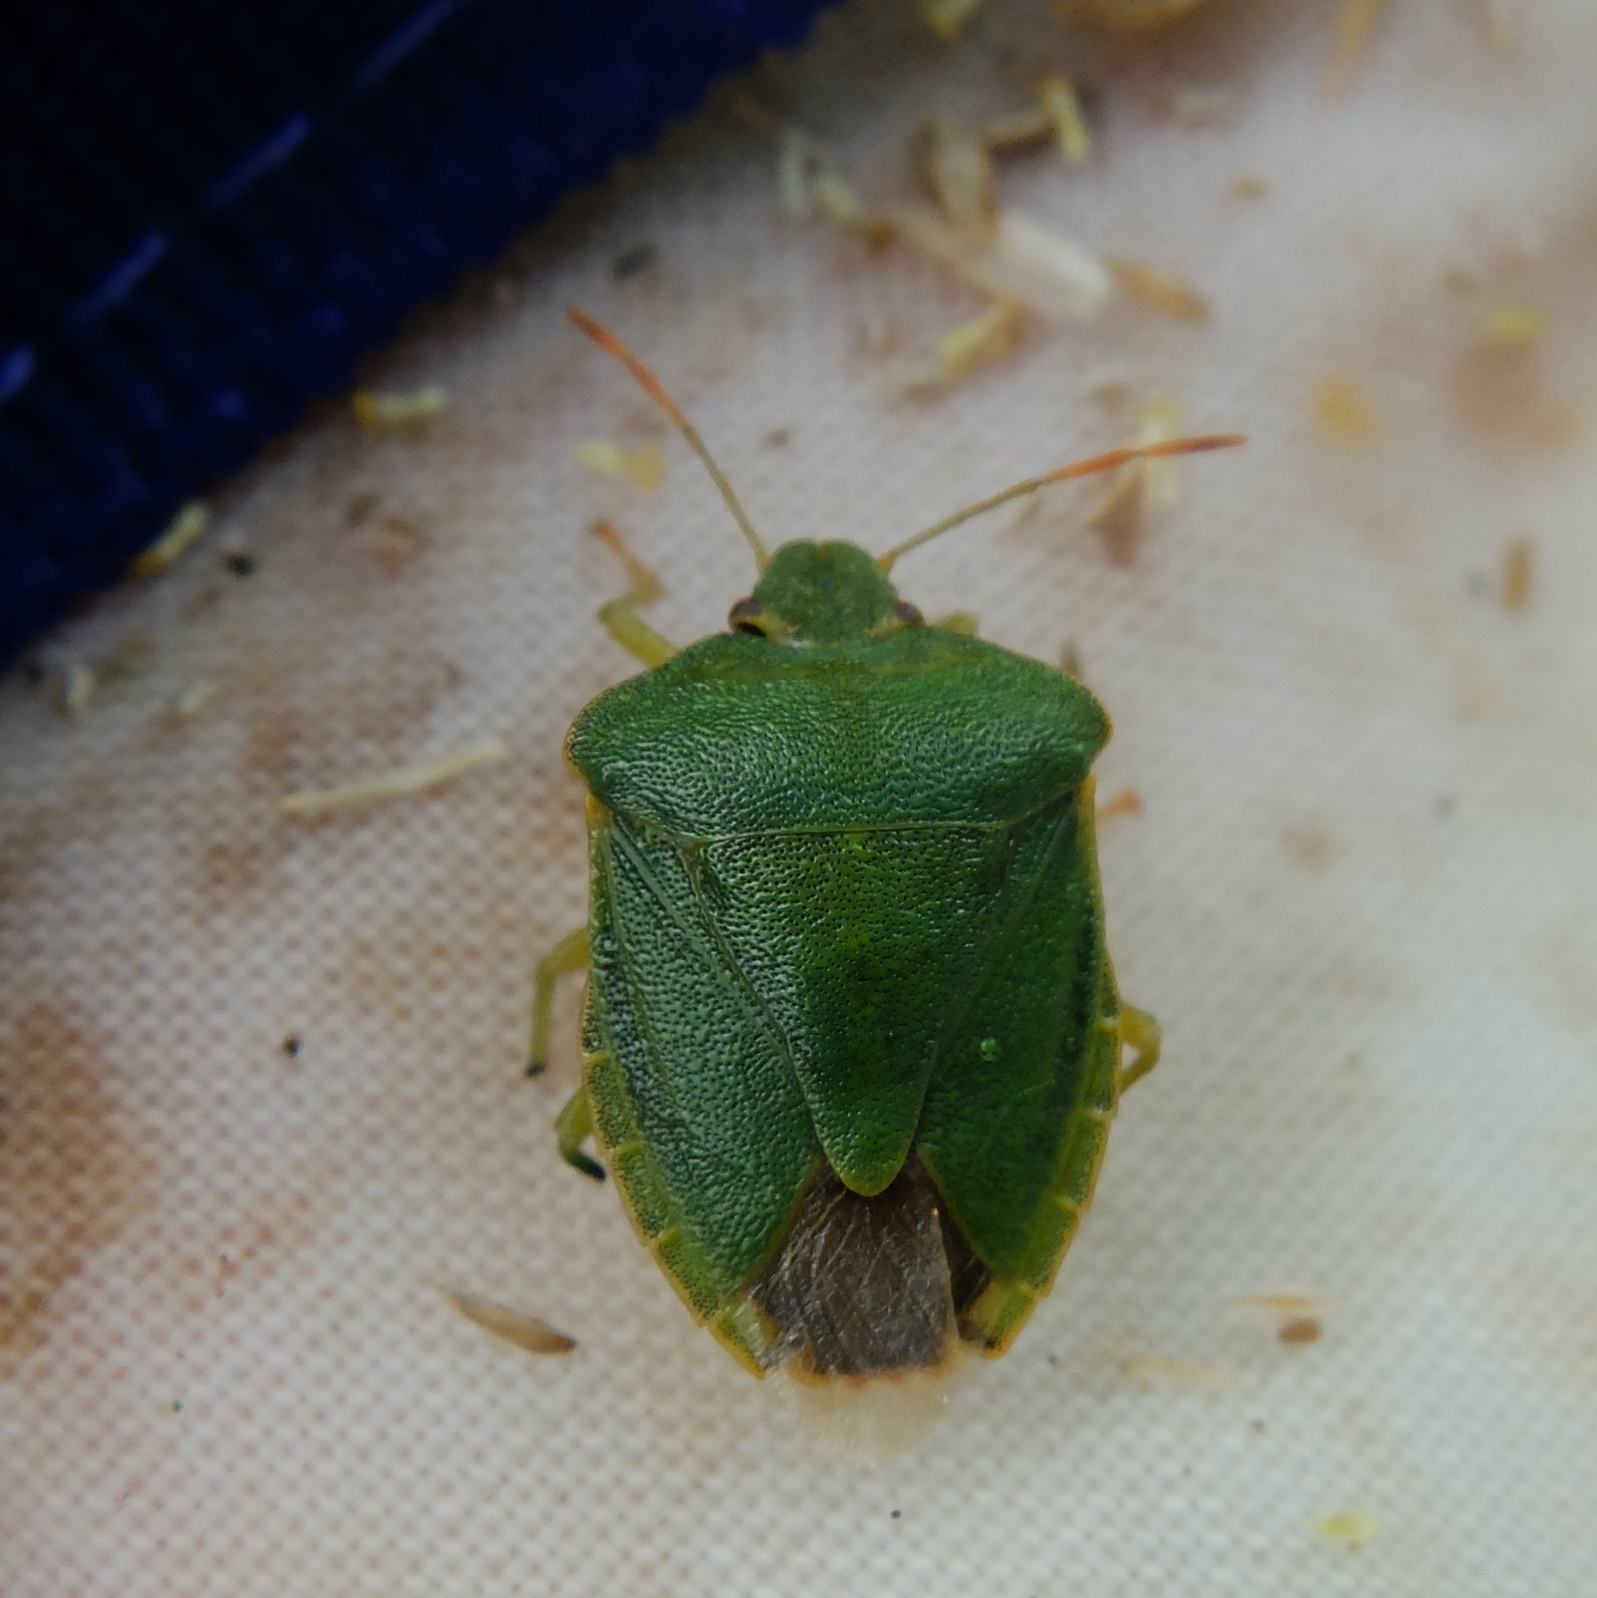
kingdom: Animalia
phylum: Arthropoda
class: Insecta
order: Hemiptera
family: Pentatomidae
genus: Palomena
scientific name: Palomena prasina
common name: Green shieldbug
